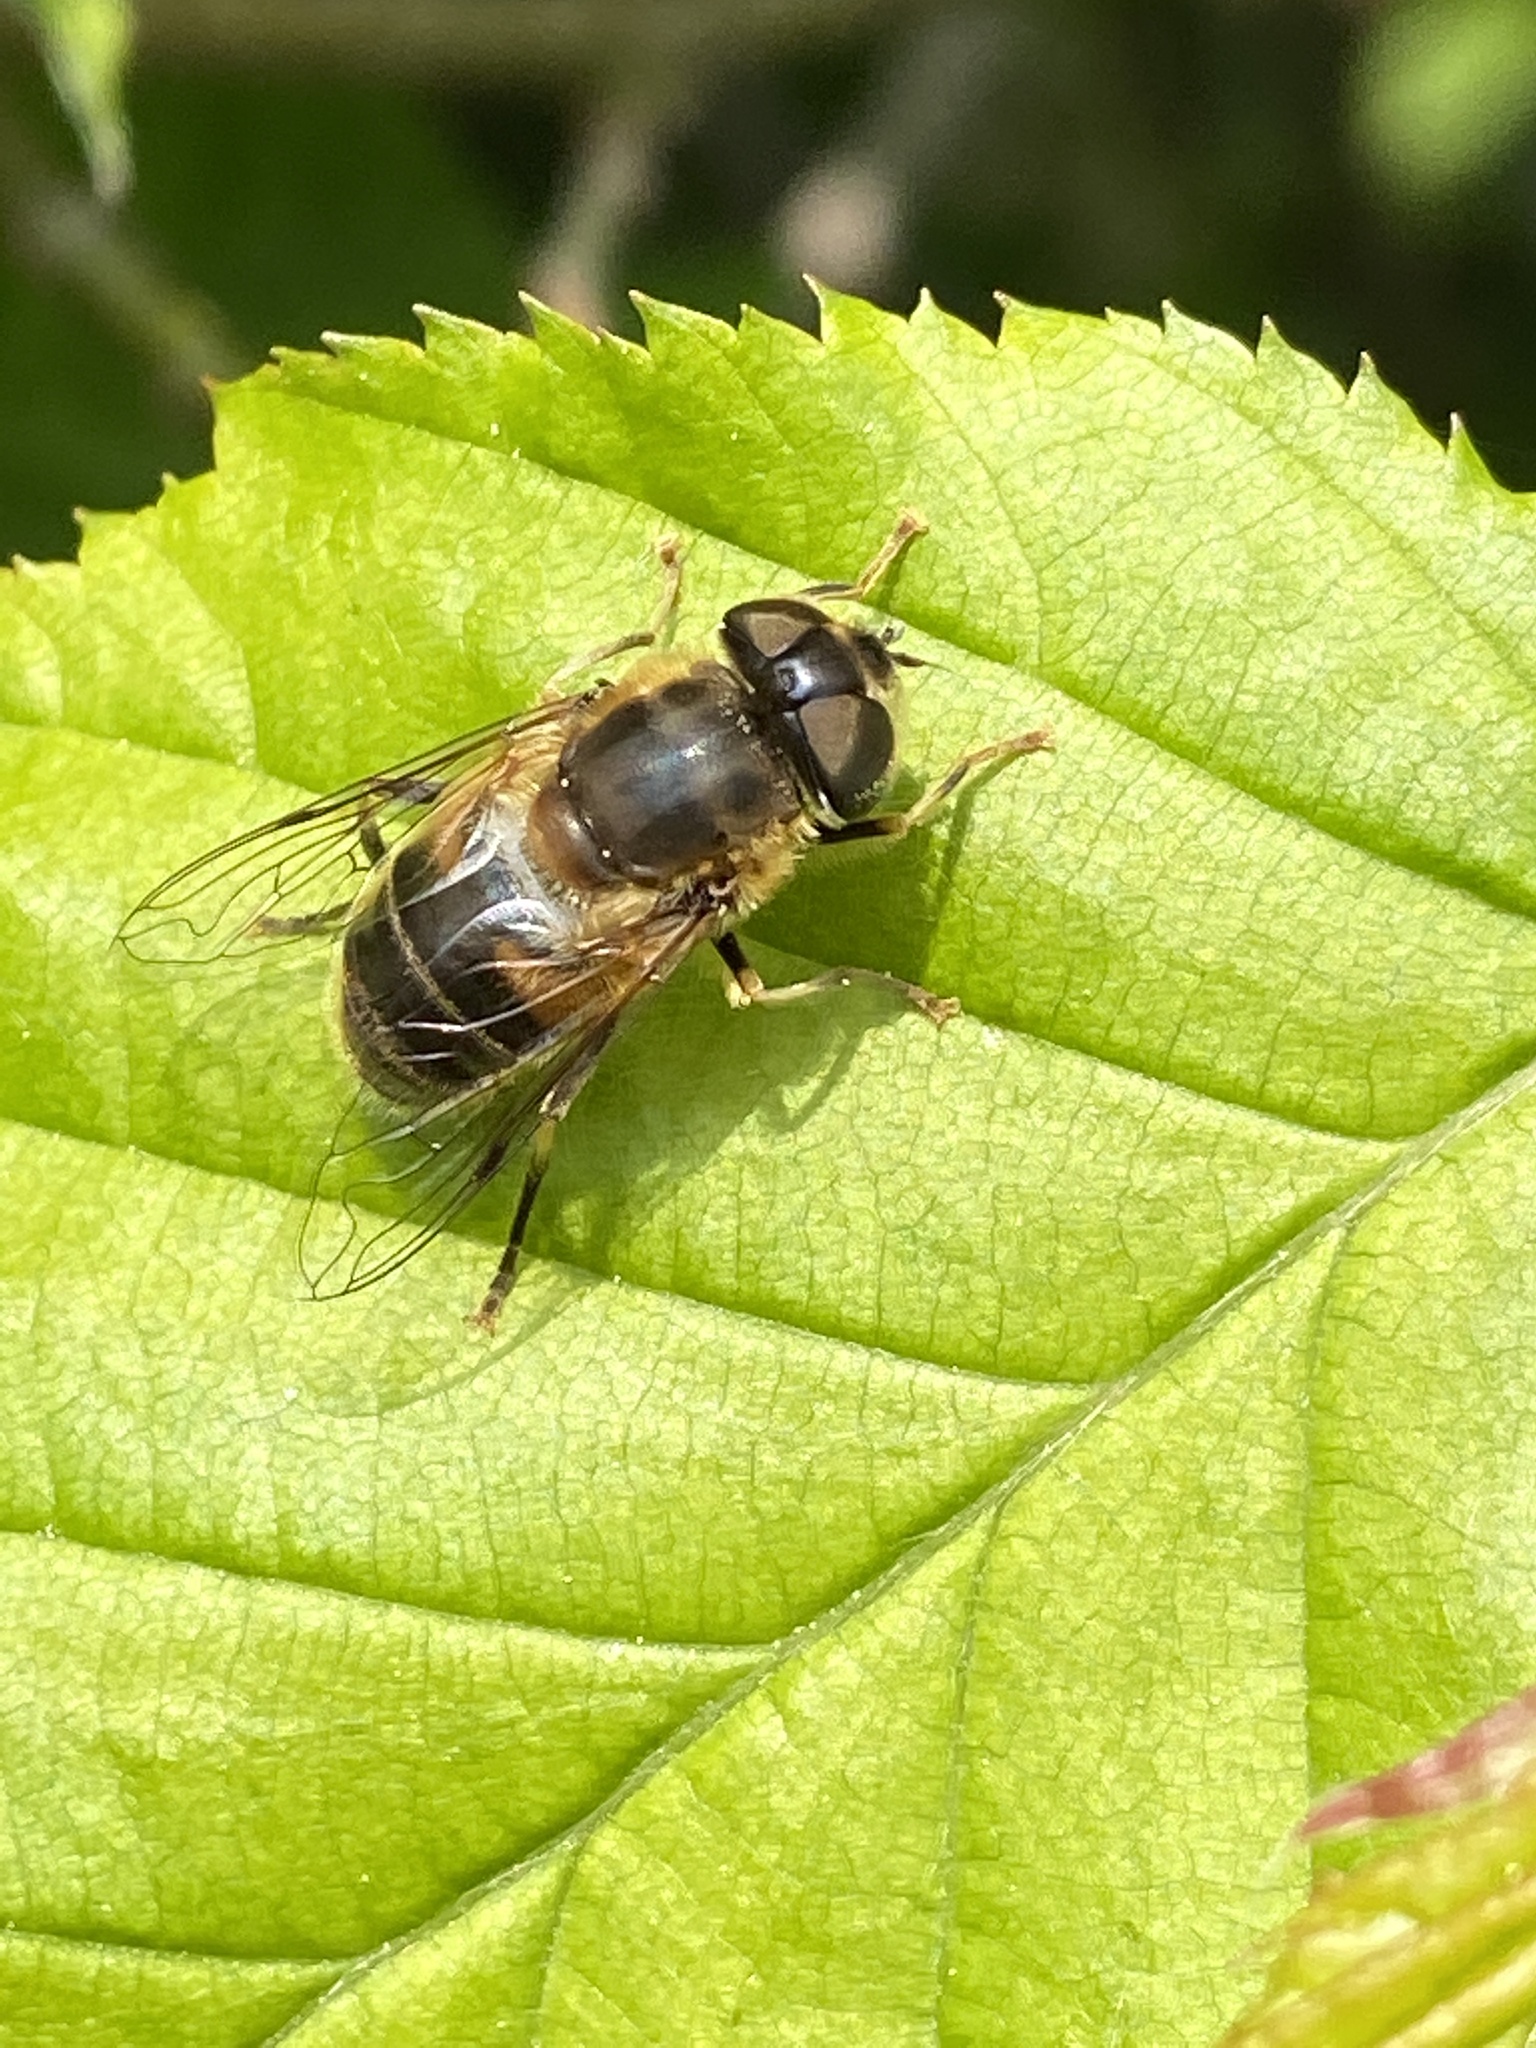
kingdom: Animalia
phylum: Arthropoda
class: Insecta
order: Diptera
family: Syrphidae
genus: Eristalis
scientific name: Eristalis pertinax
